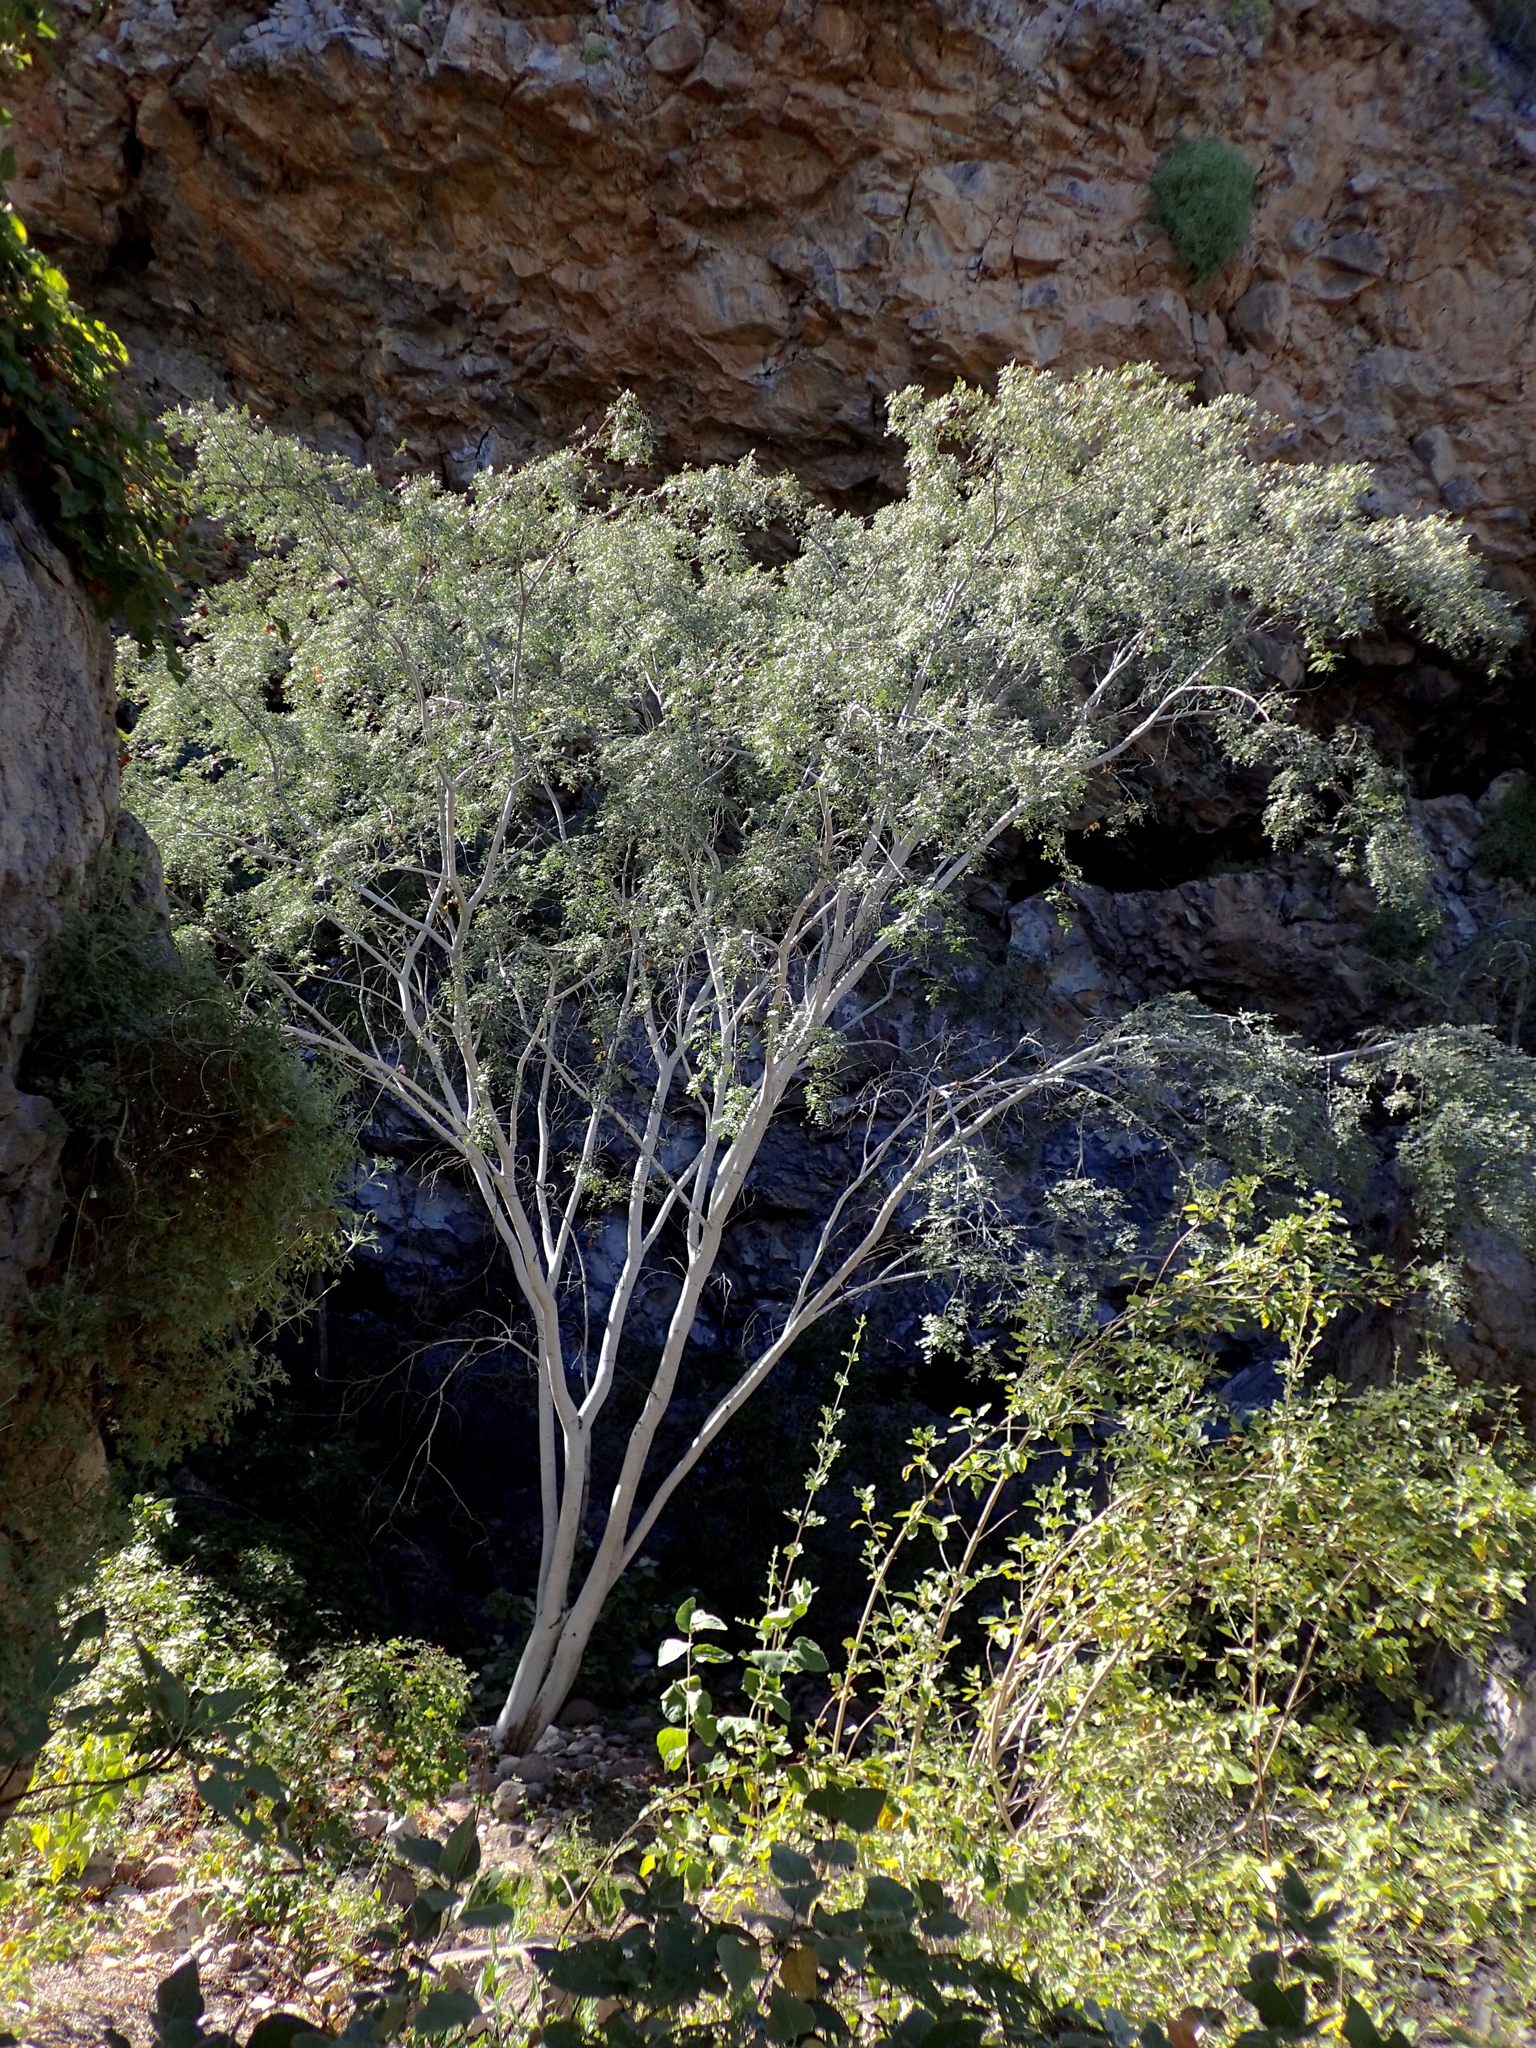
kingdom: Plantae
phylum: Tracheophyta
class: Magnoliopsida
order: Fabales
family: Fabaceae
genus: Lysiloma
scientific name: Lysiloma candidum
